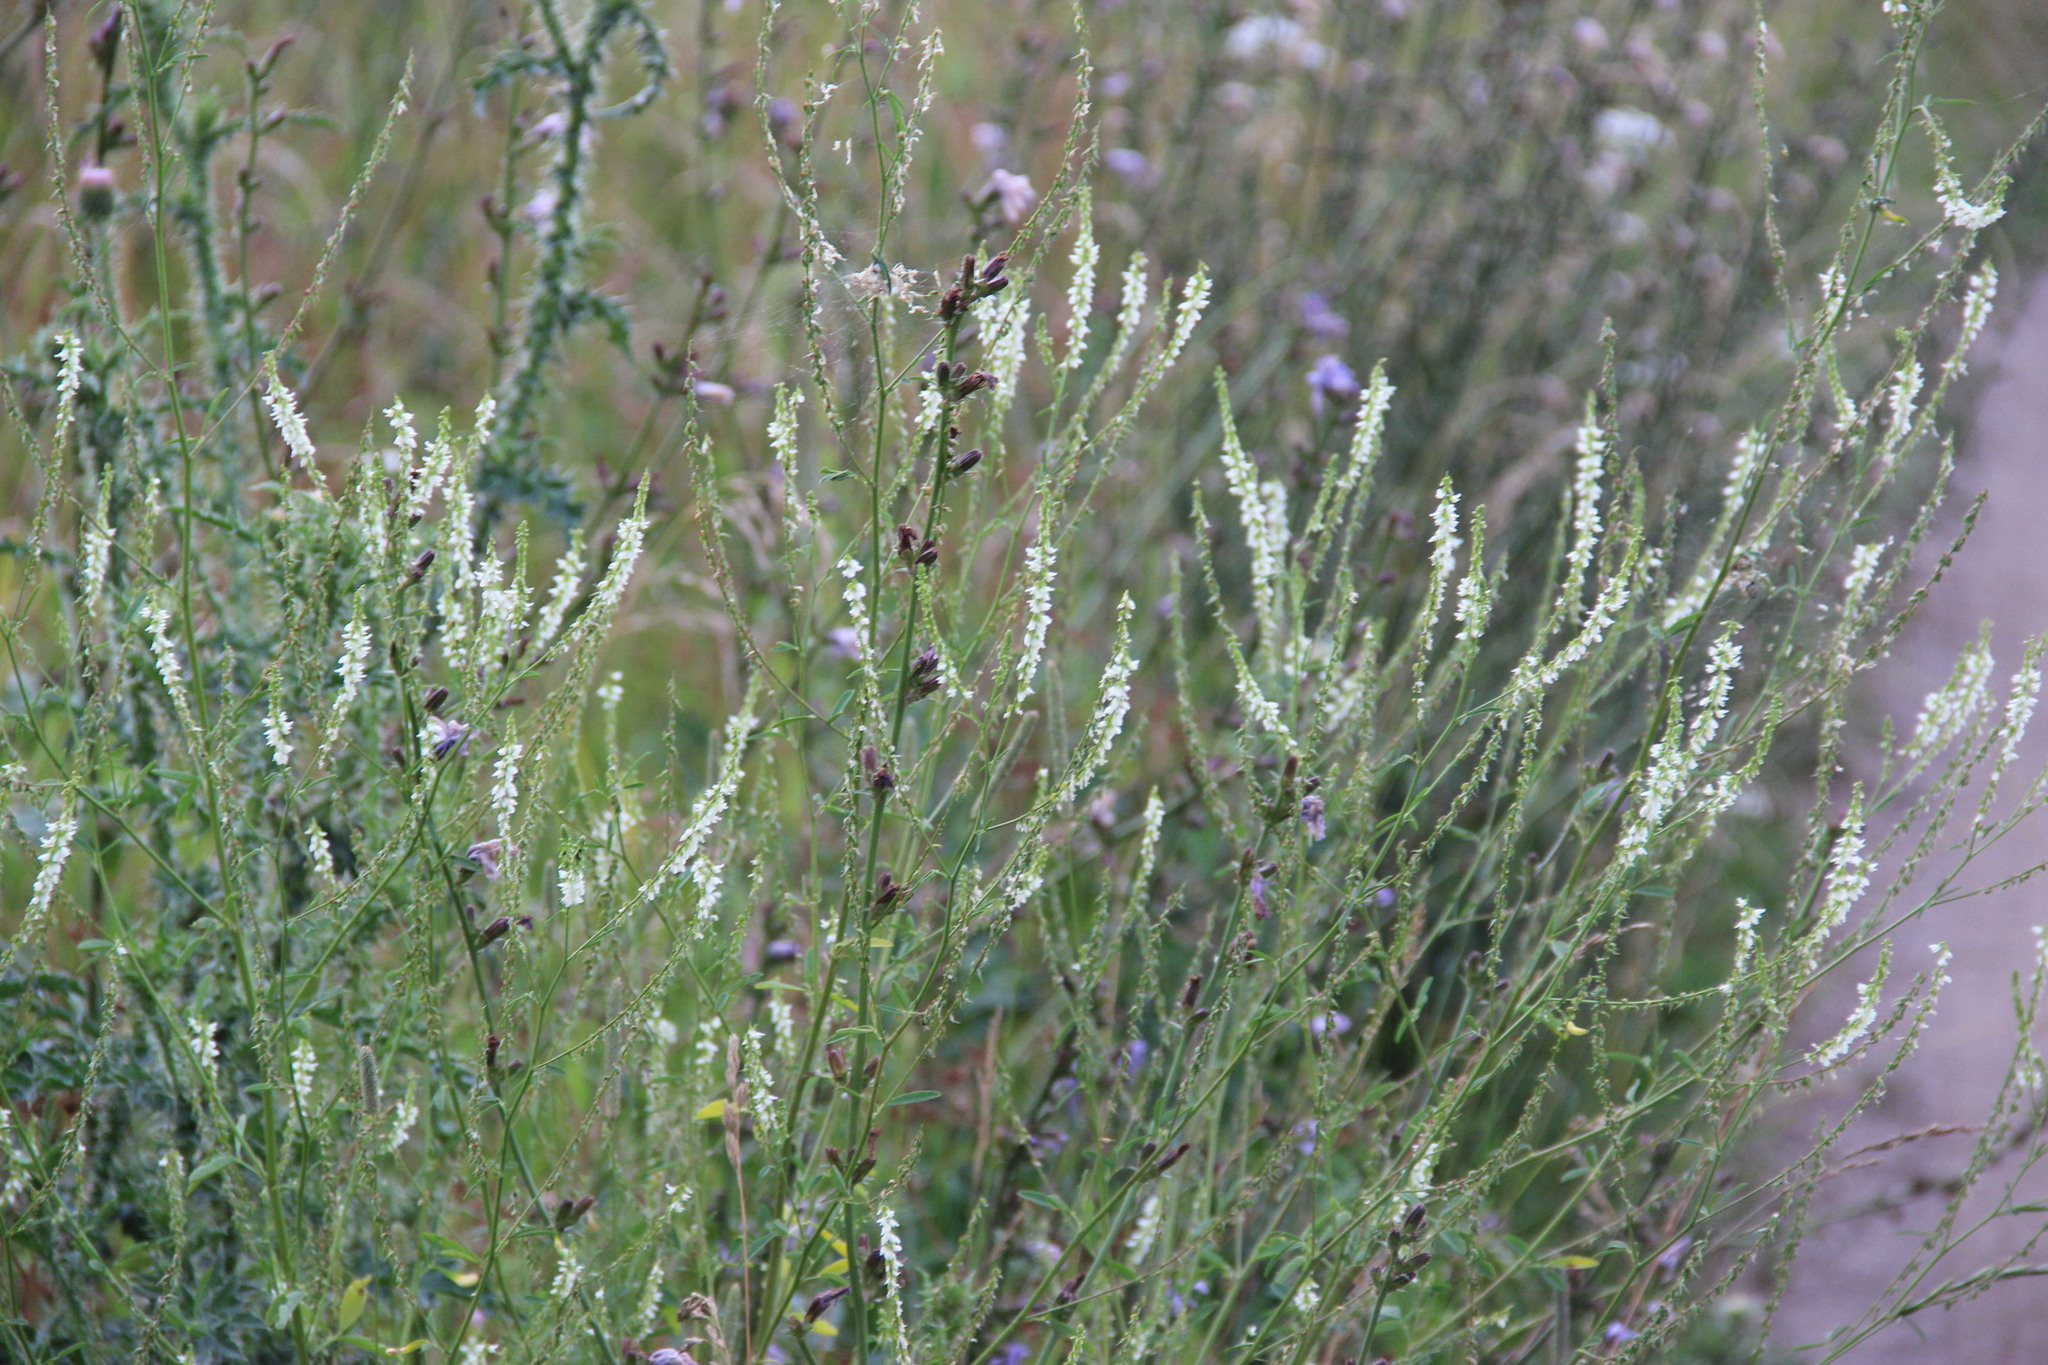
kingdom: Plantae
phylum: Tracheophyta
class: Magnoliopsida
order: Fabales
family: Fabaceae
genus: Melilotus
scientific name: Melilotus albus
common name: White melilot
